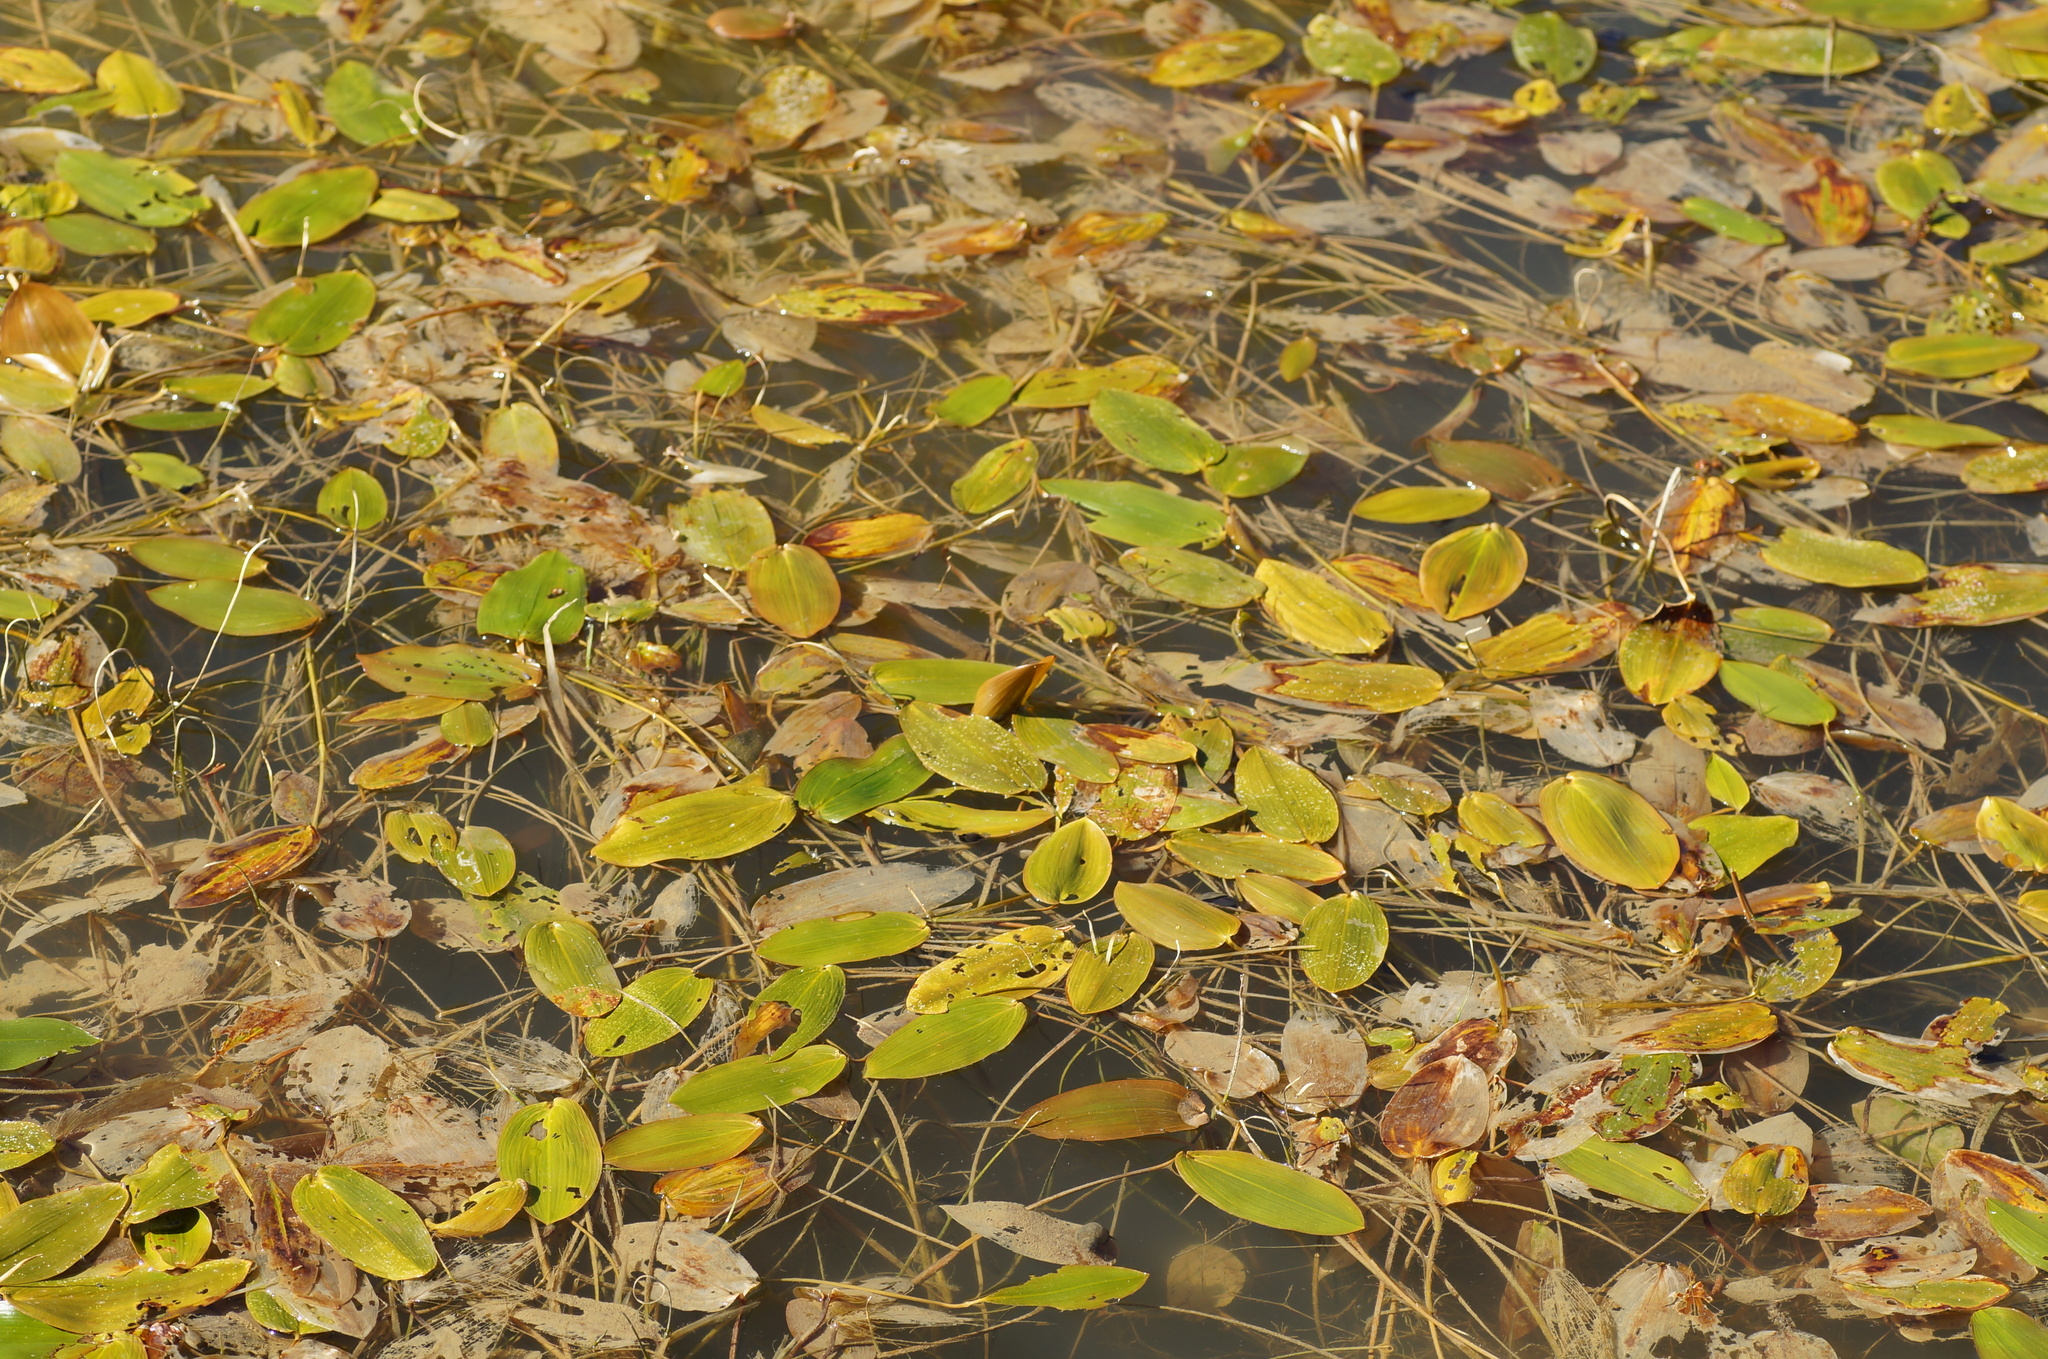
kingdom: Plantae
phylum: Tracheophyta
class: Liliopsida
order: Alismatales
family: Potamogetonaceae
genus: Potamogeton
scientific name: Potamogeton natans
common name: Broad-leaved pondweed
